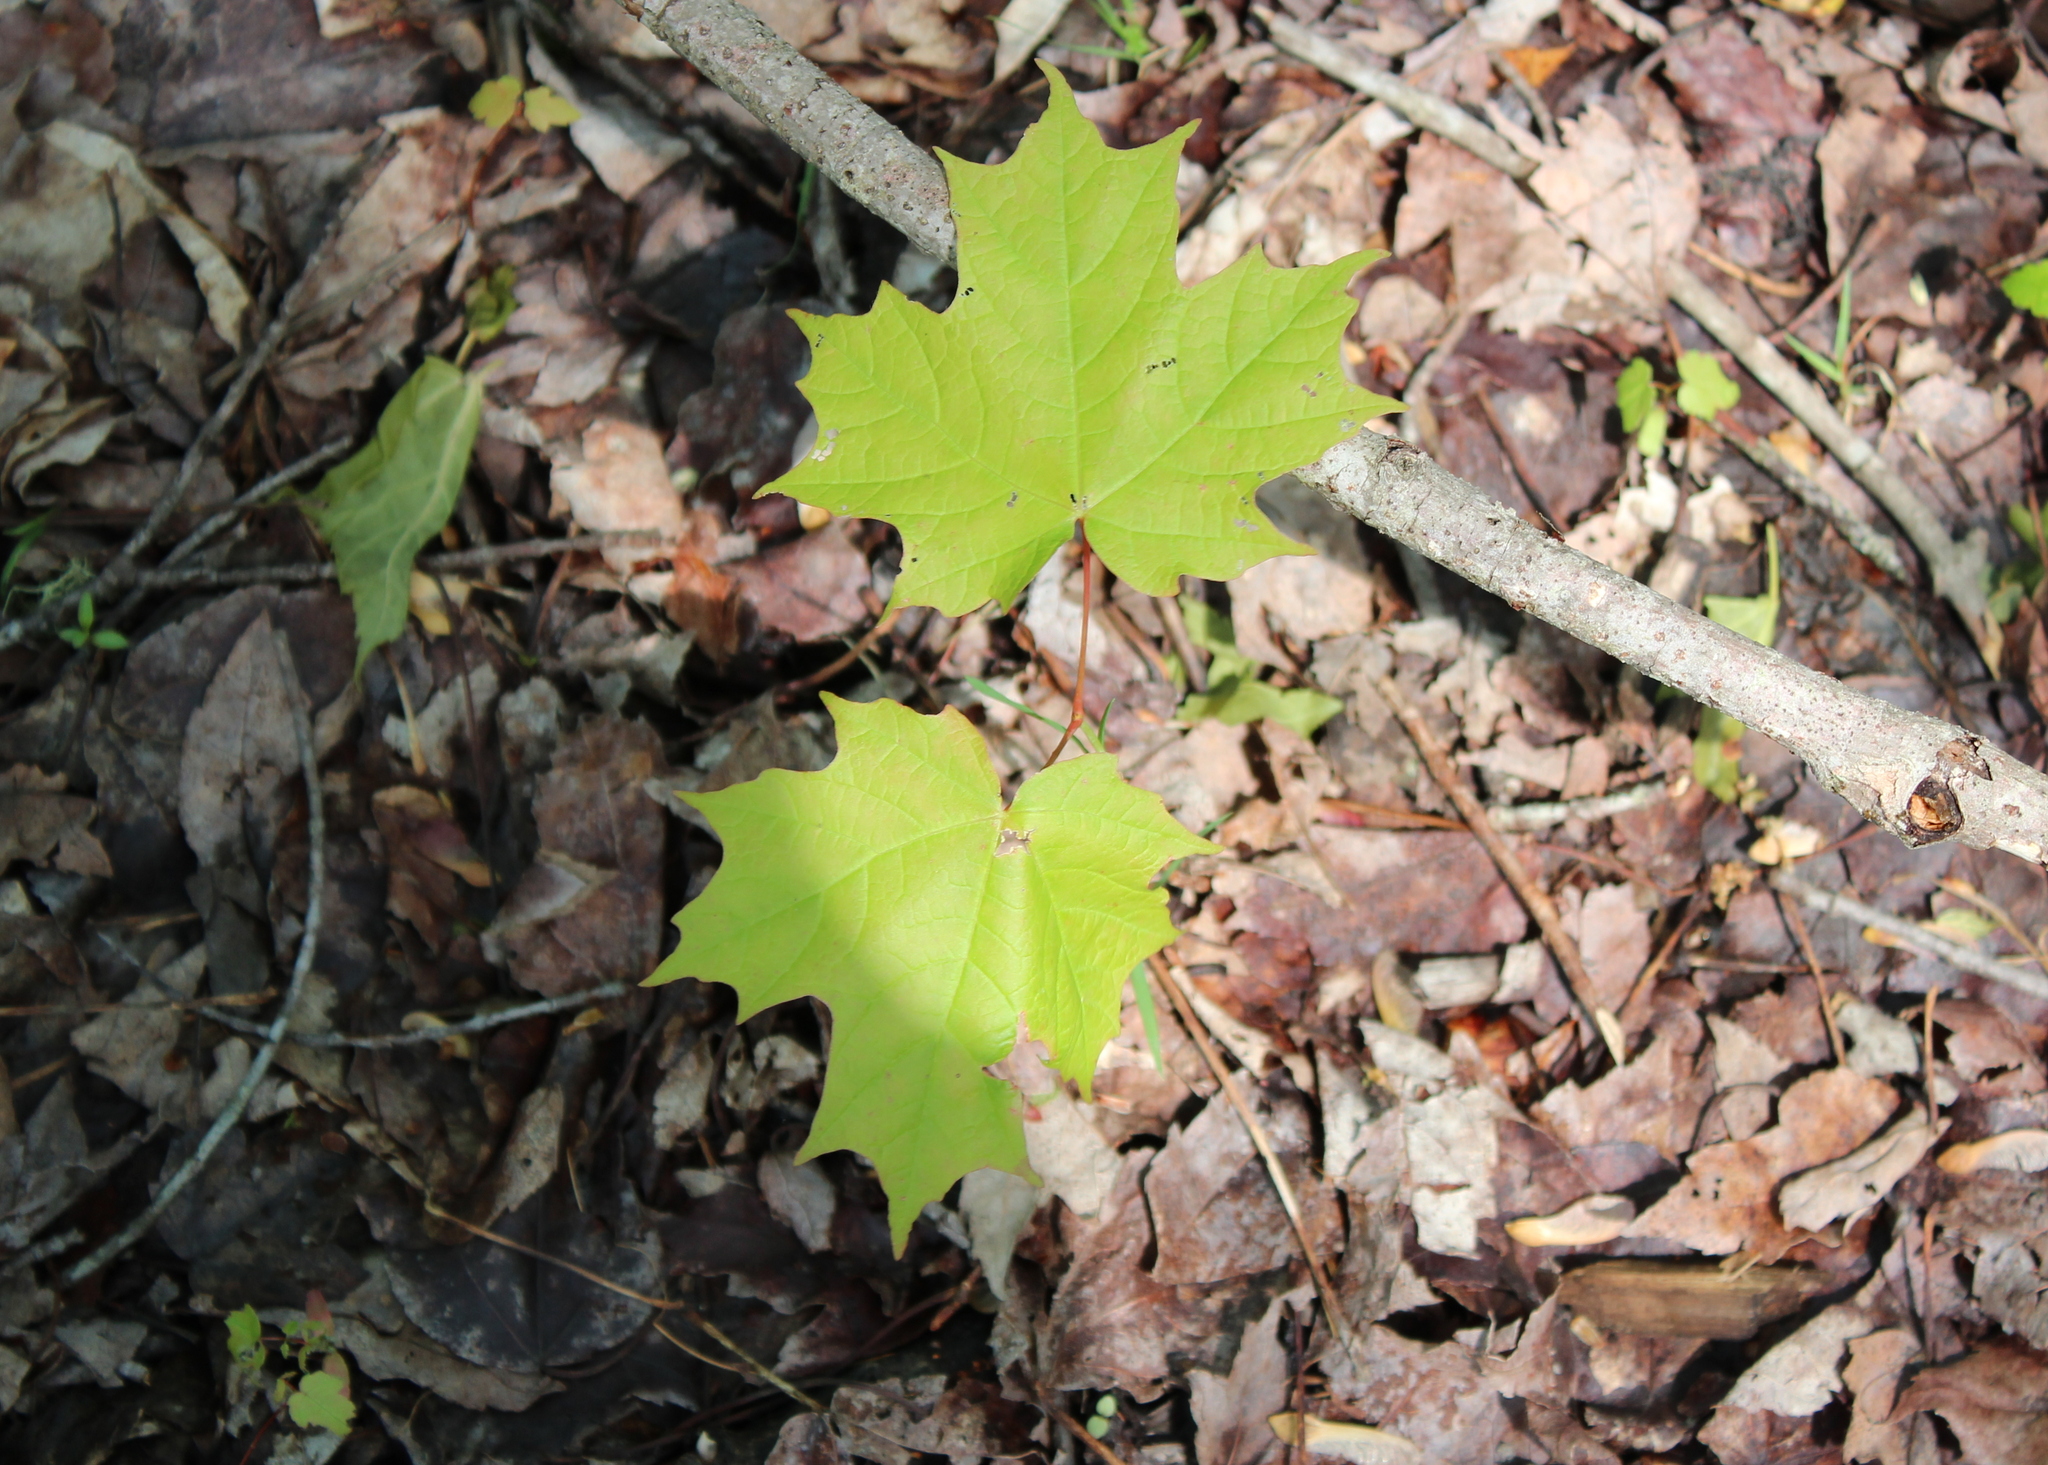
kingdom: Plantae
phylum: Tracheophyta
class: Magnoliopsida
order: Sapindales
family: Sapindaceae
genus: Acer
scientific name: Acer saccharum
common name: Sugar maple
